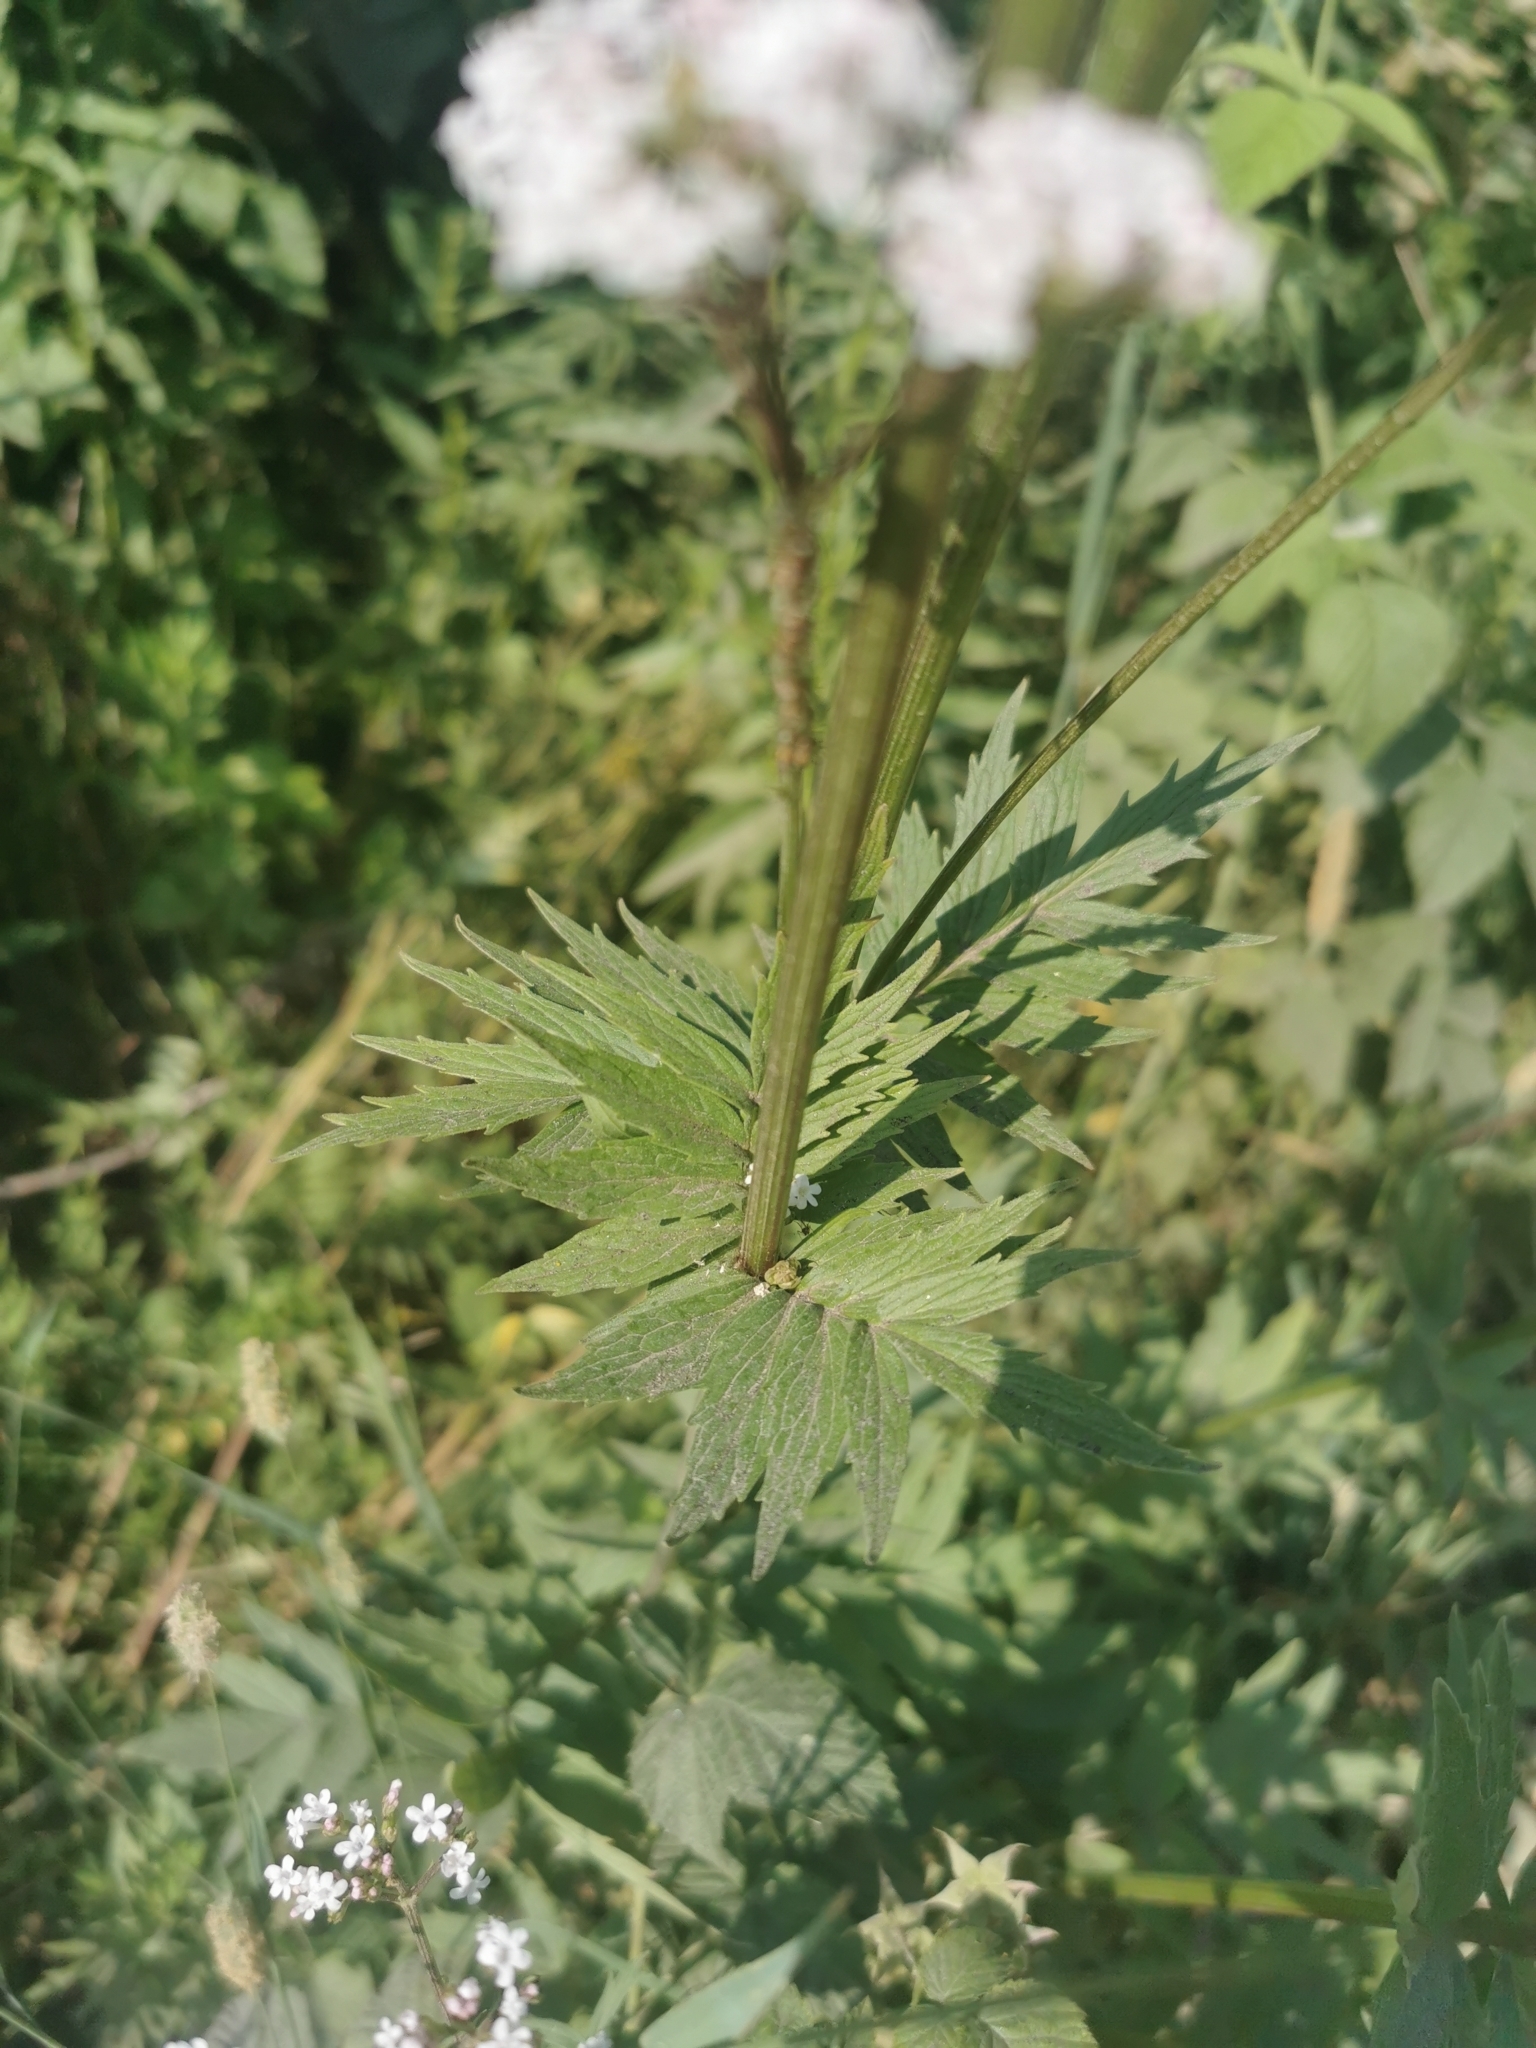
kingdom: Plantae
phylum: Tracheophyta
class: Magnoliopsida
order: Dipsacales
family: Caprifoliaceae
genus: Valeriana
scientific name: Valeriana officinalis
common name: Common valerian
